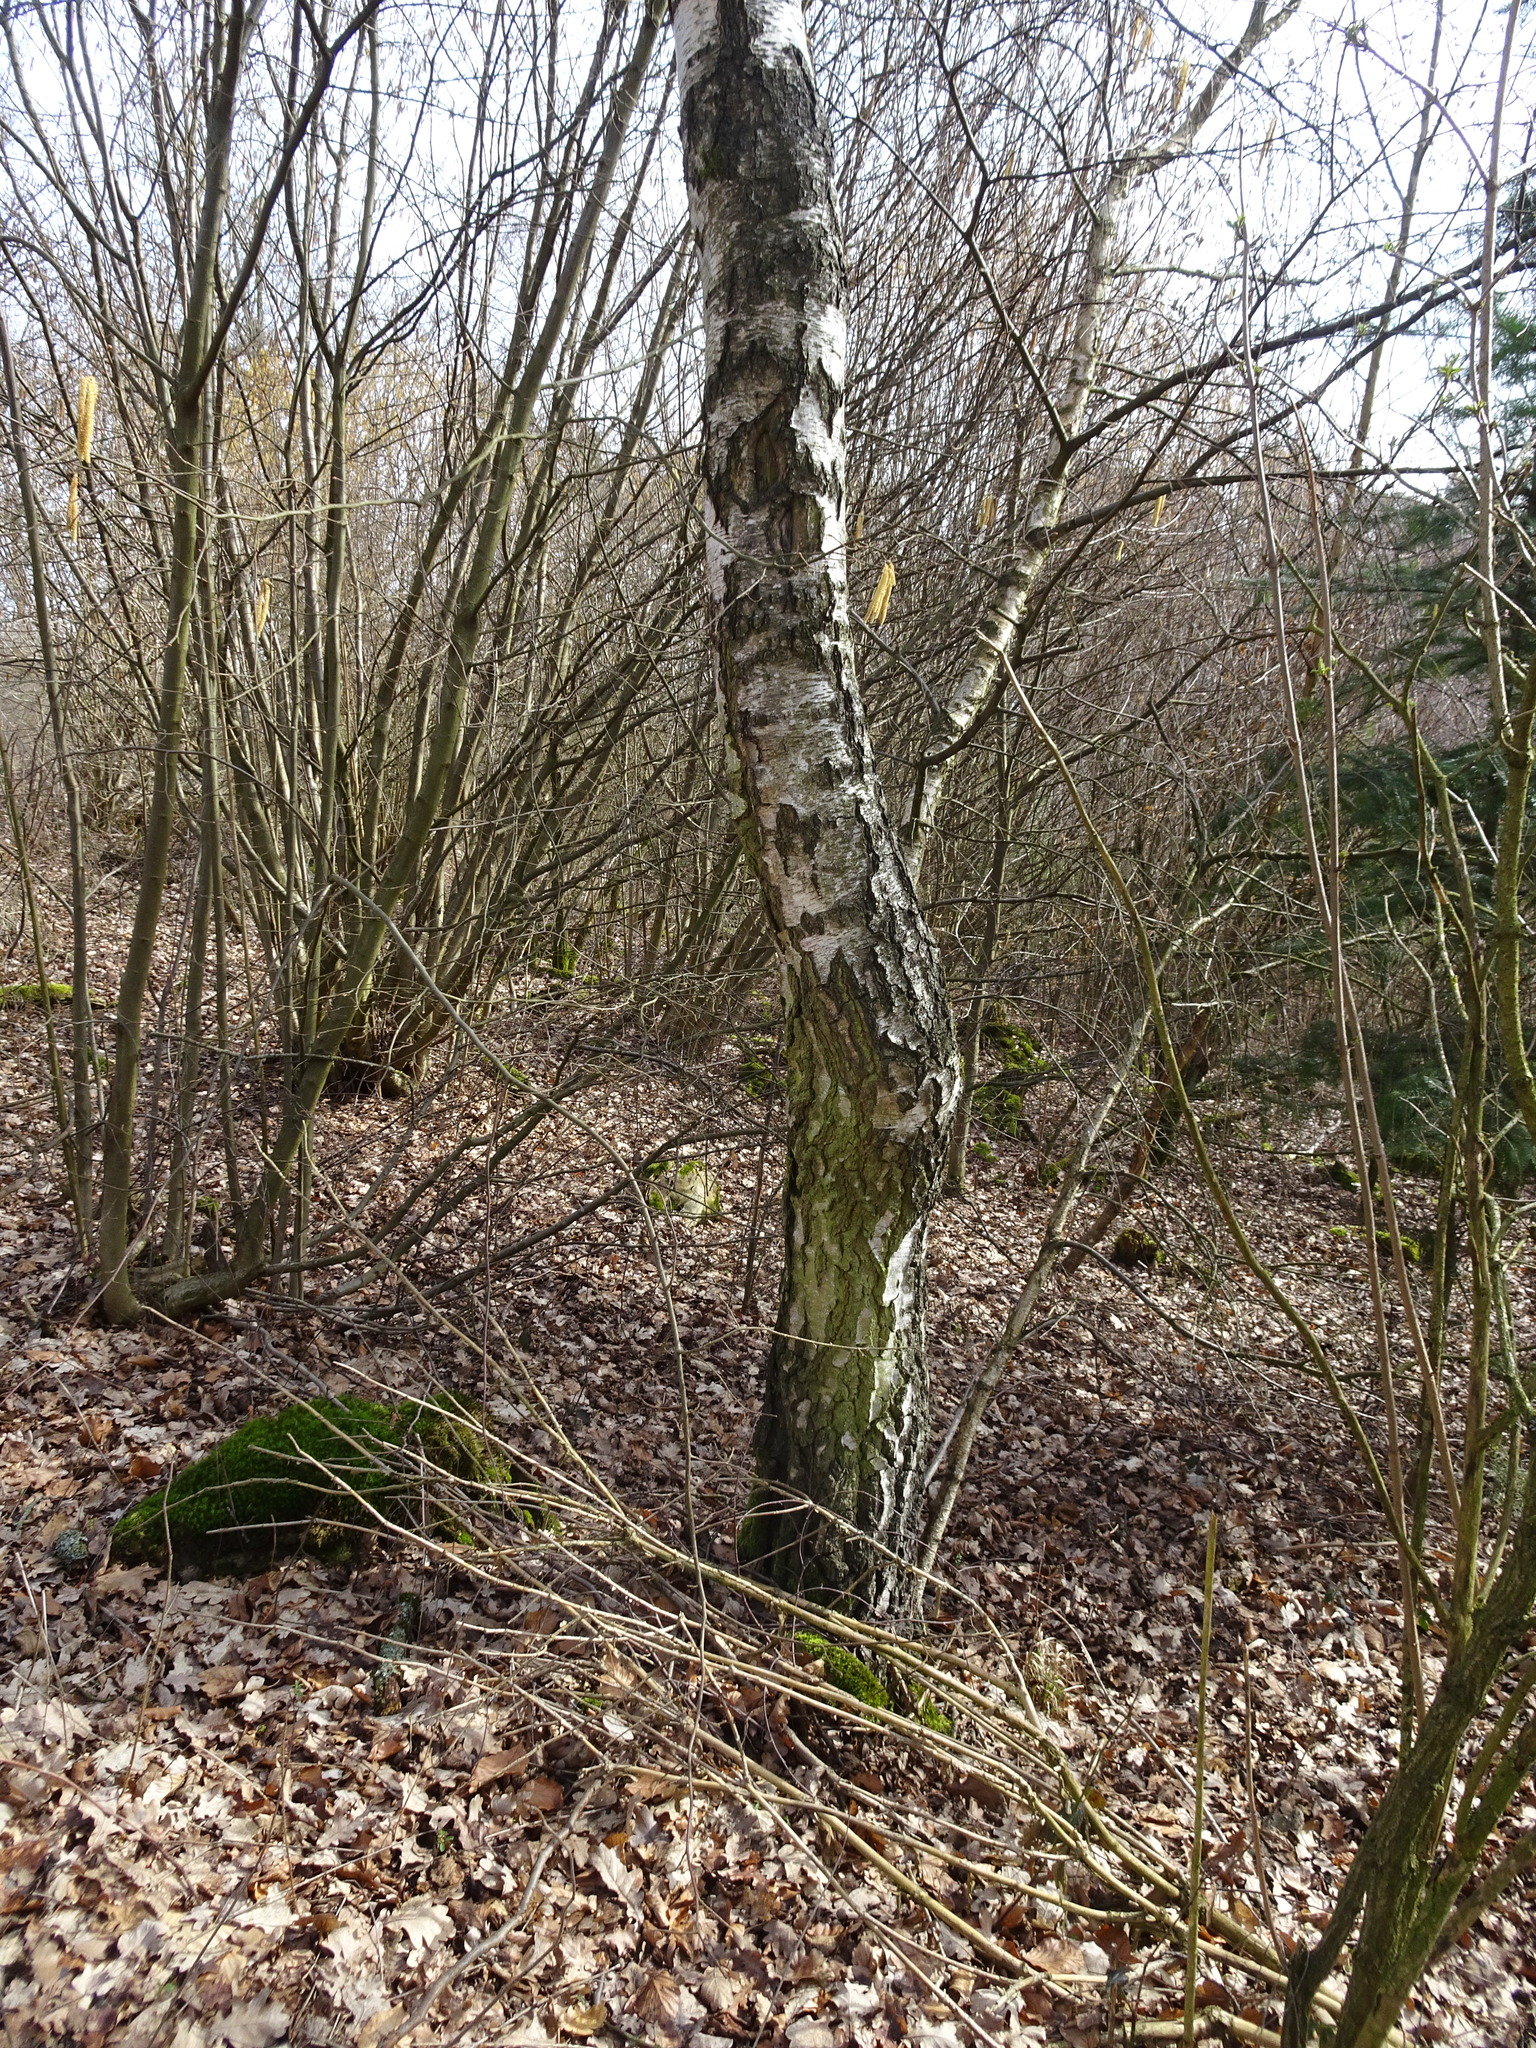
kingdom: Plantae
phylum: Tracheophyta
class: Magnoliopsida
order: Fagales
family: Betulaceae
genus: Betula
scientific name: Betula pendula
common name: Silver birch
